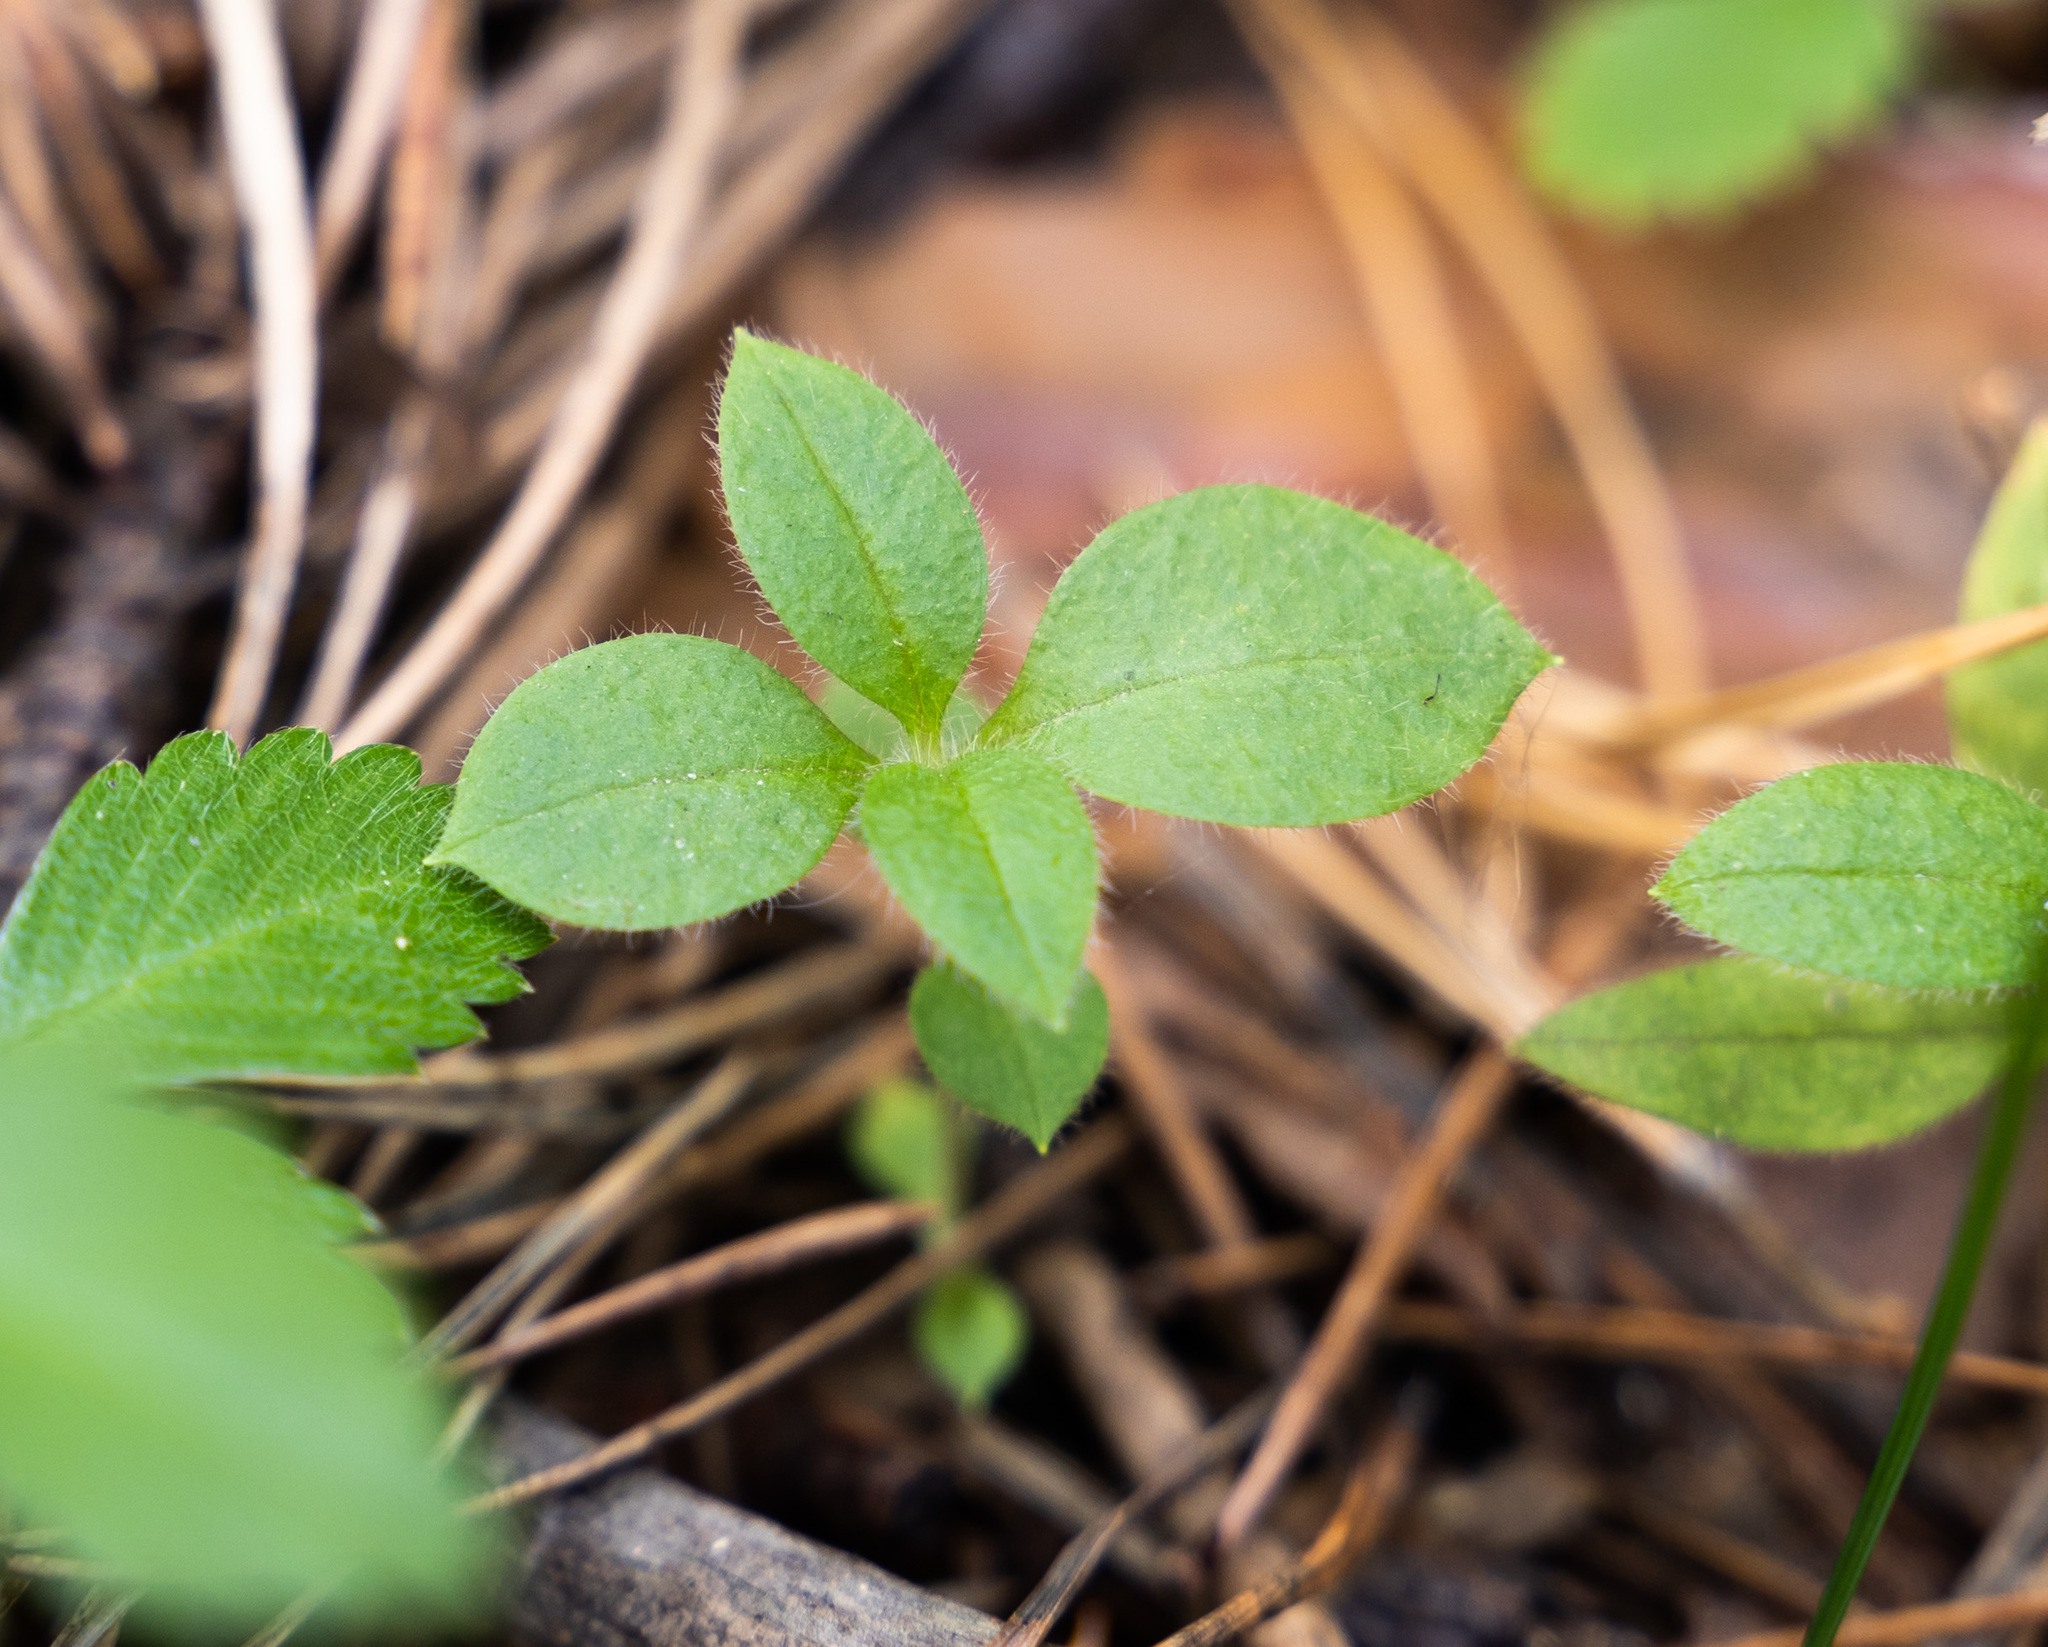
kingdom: Plantae
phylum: Tracheophyta
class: Magnoliopsida
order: Caryophyllales
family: Caryophyllaceae
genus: Cerastium
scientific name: Cerastium pauciflorum
